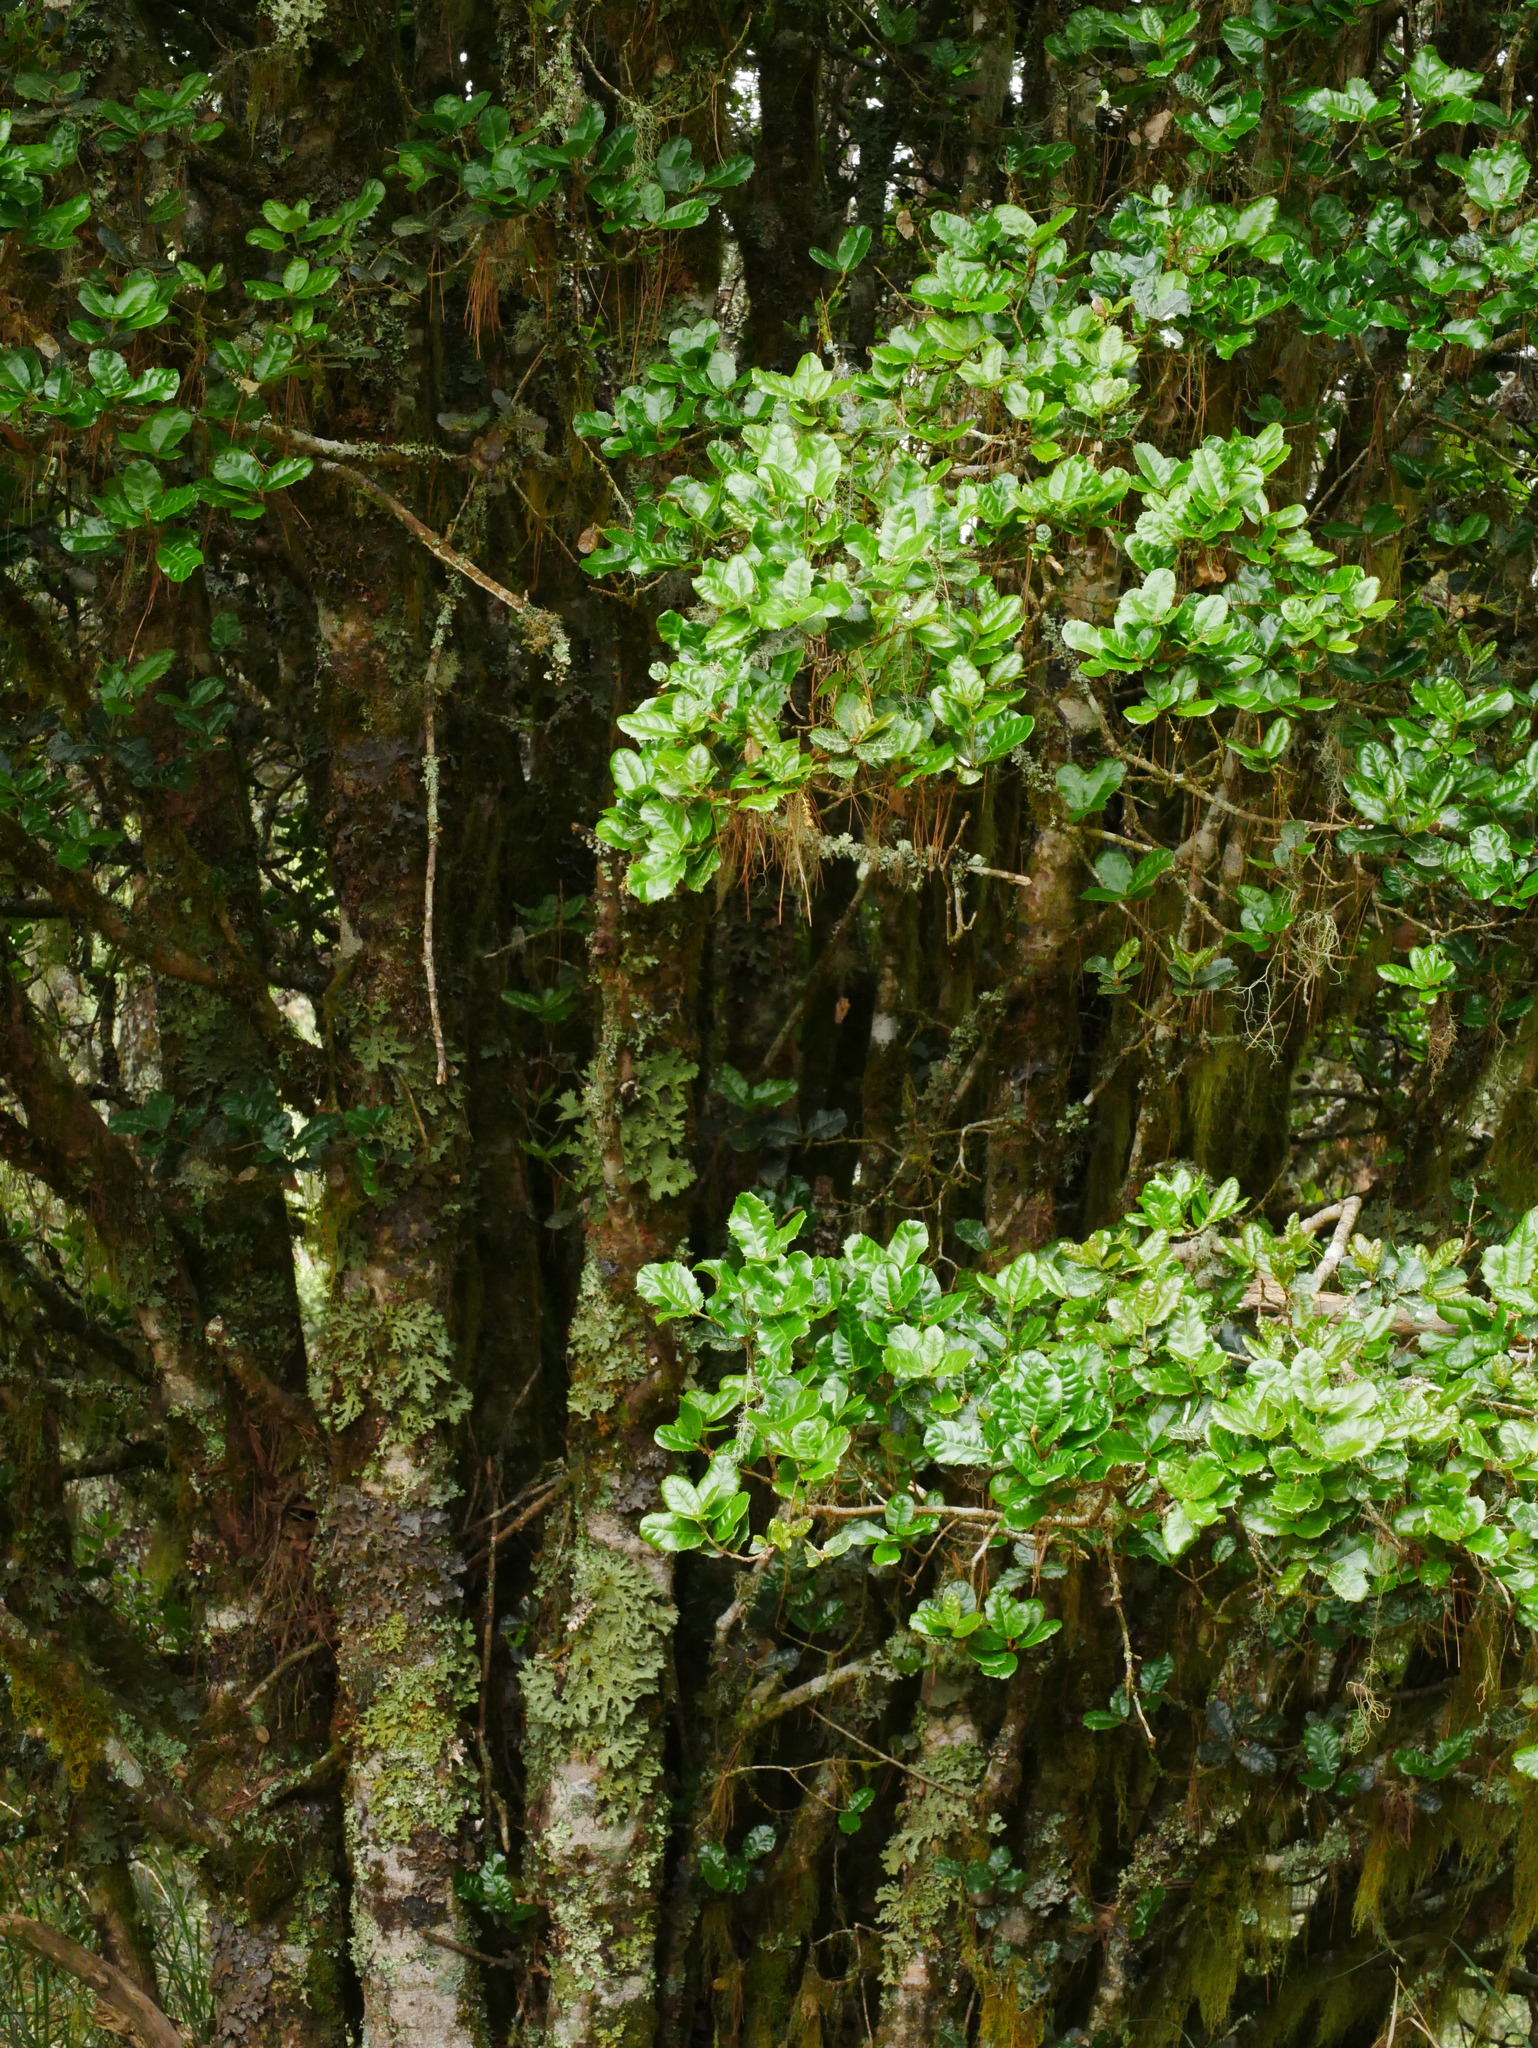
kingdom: Plantae
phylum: Tracheophyta
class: Magnoliopsida
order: Fagales
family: Fagaceae
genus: Quercus
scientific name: Quercus spinosa
